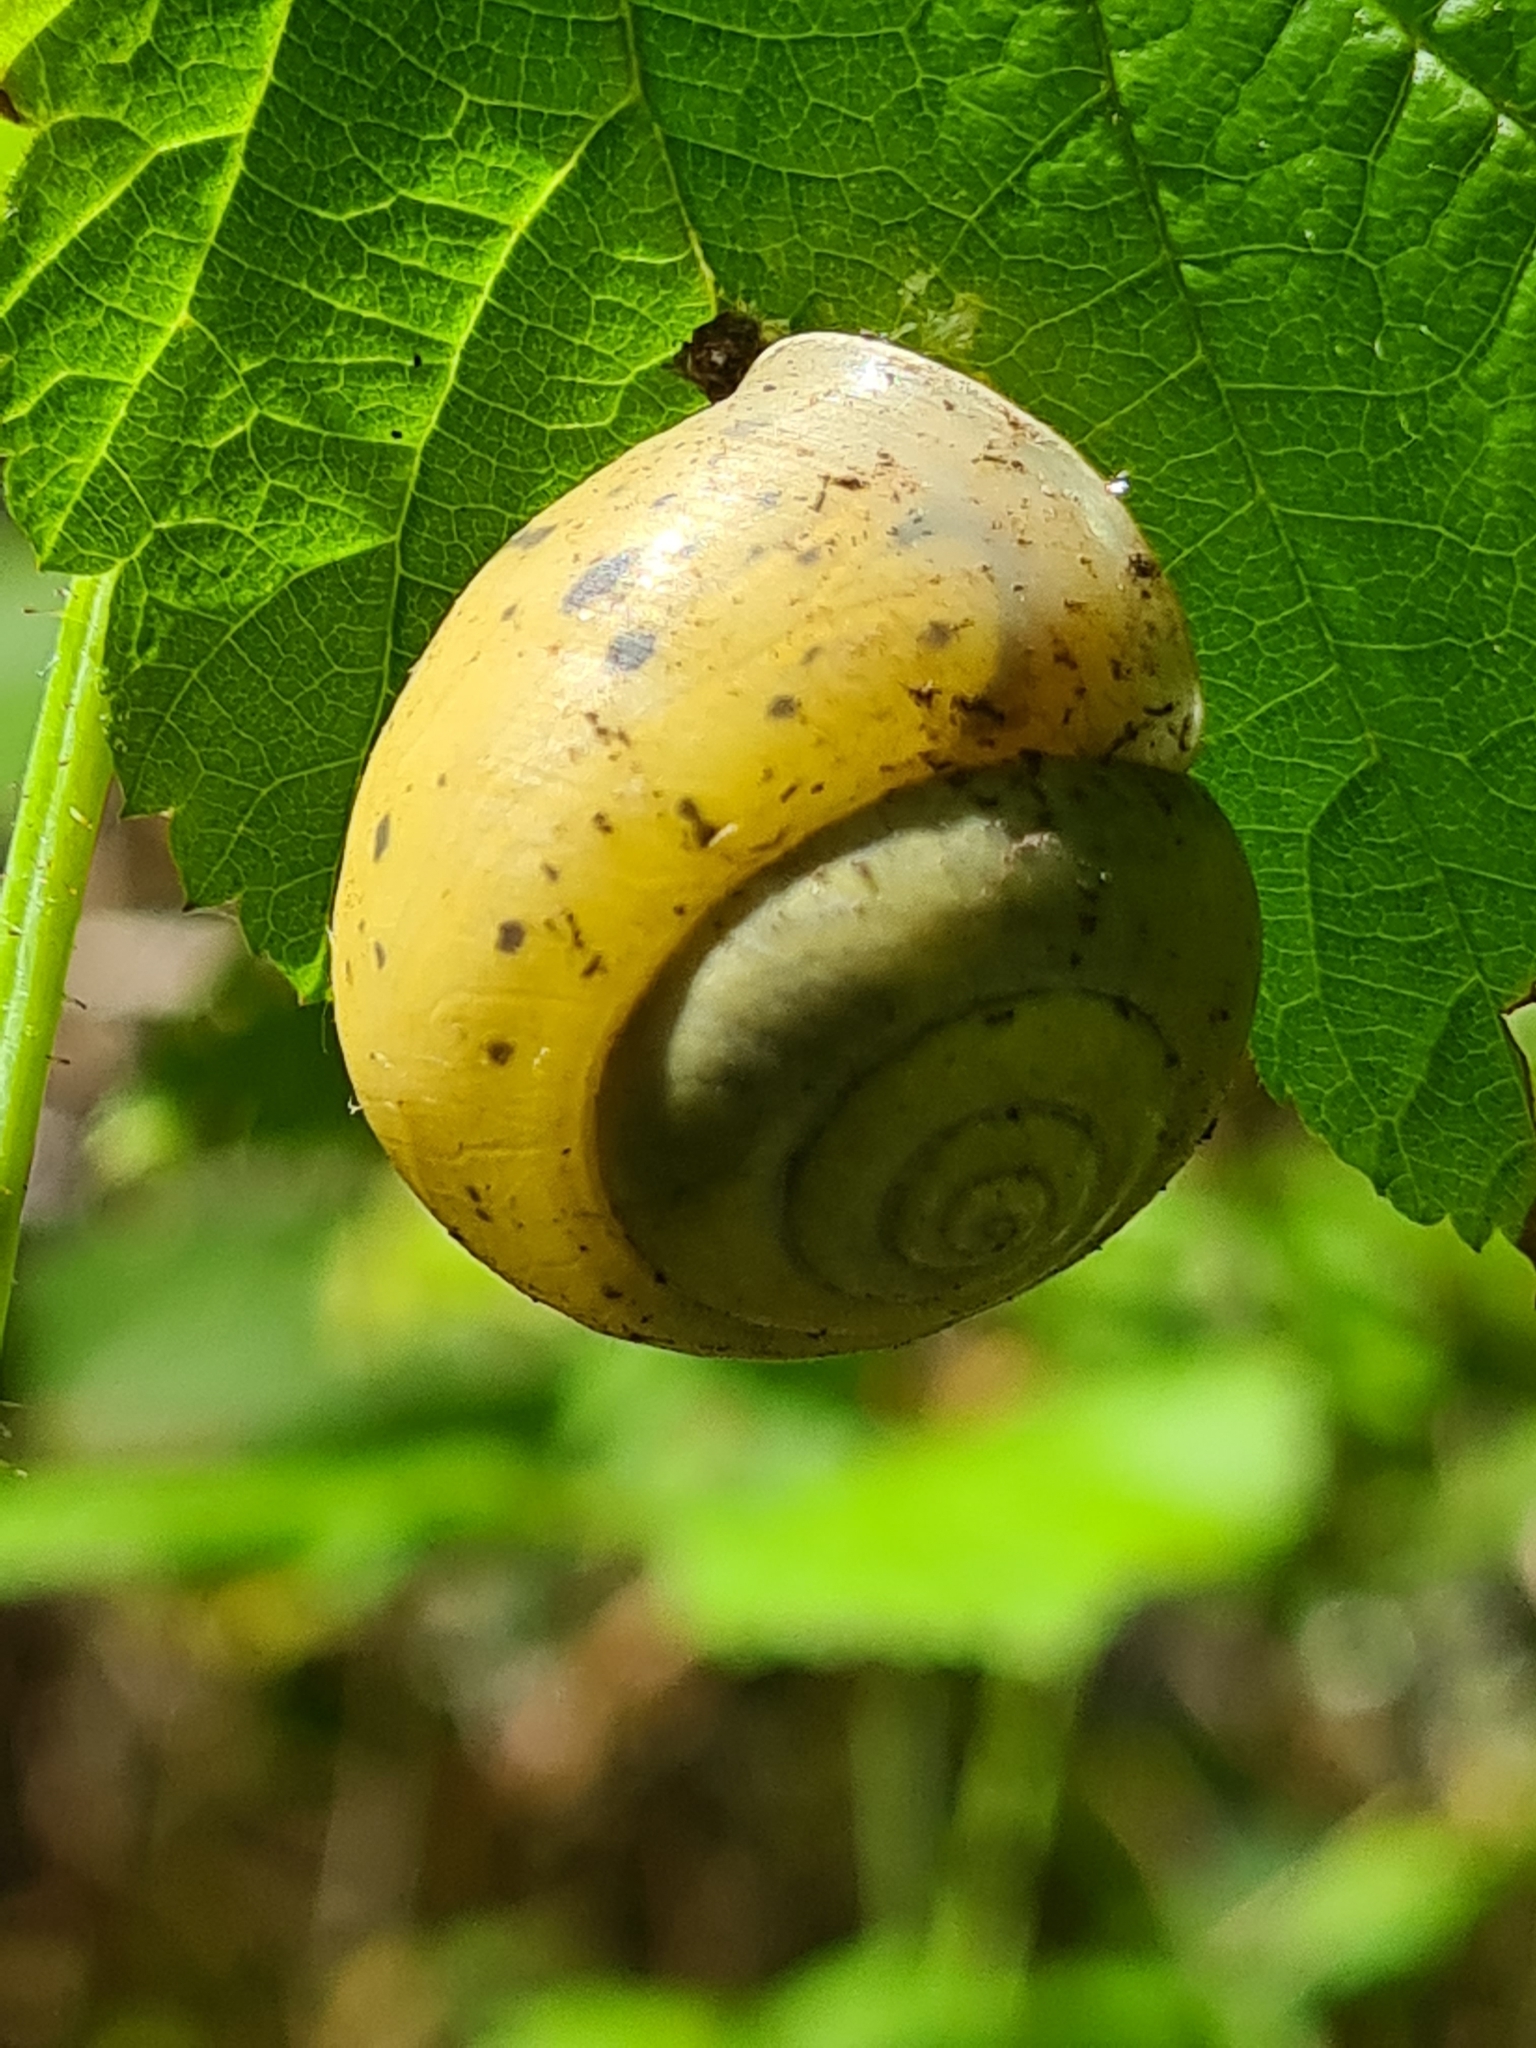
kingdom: Animalia
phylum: Mollusca
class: Gastropoda
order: Stylommatophora
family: Camaenidae
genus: Fruticicola
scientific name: Fruticicola fruticum
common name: Bush snail
